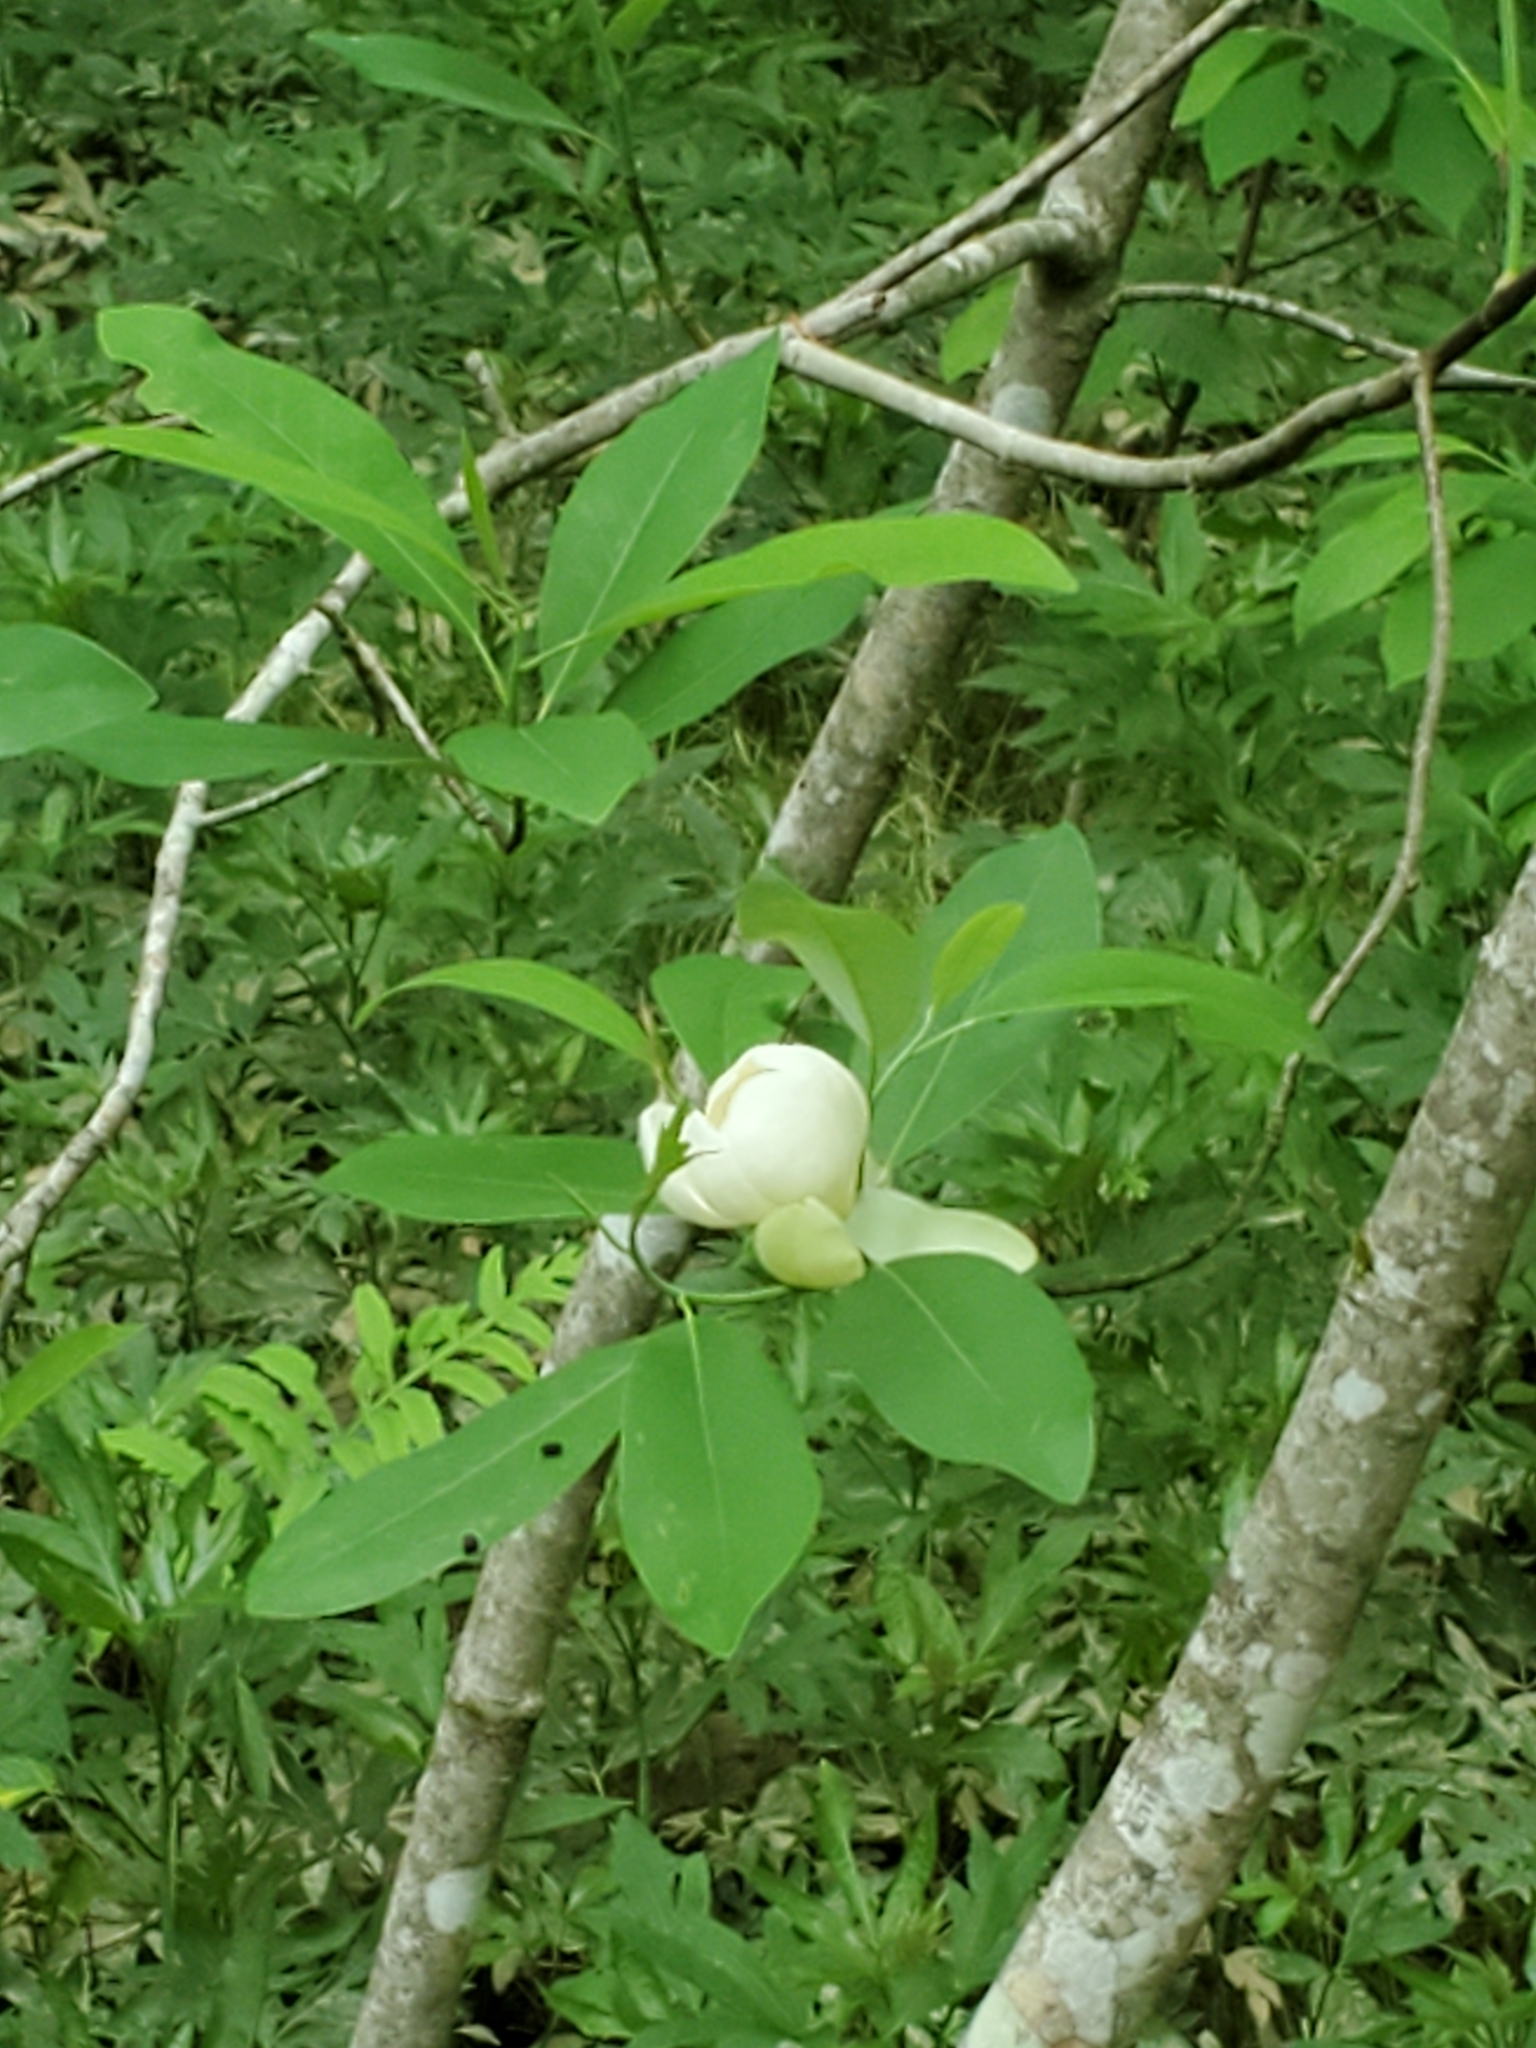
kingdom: Plantae
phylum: Tracheophyta
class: Magnoliopsida
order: Magnoliales
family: Magnoliaceae
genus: Magnolia
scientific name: Magnolia virginiana
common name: Swamp bay
